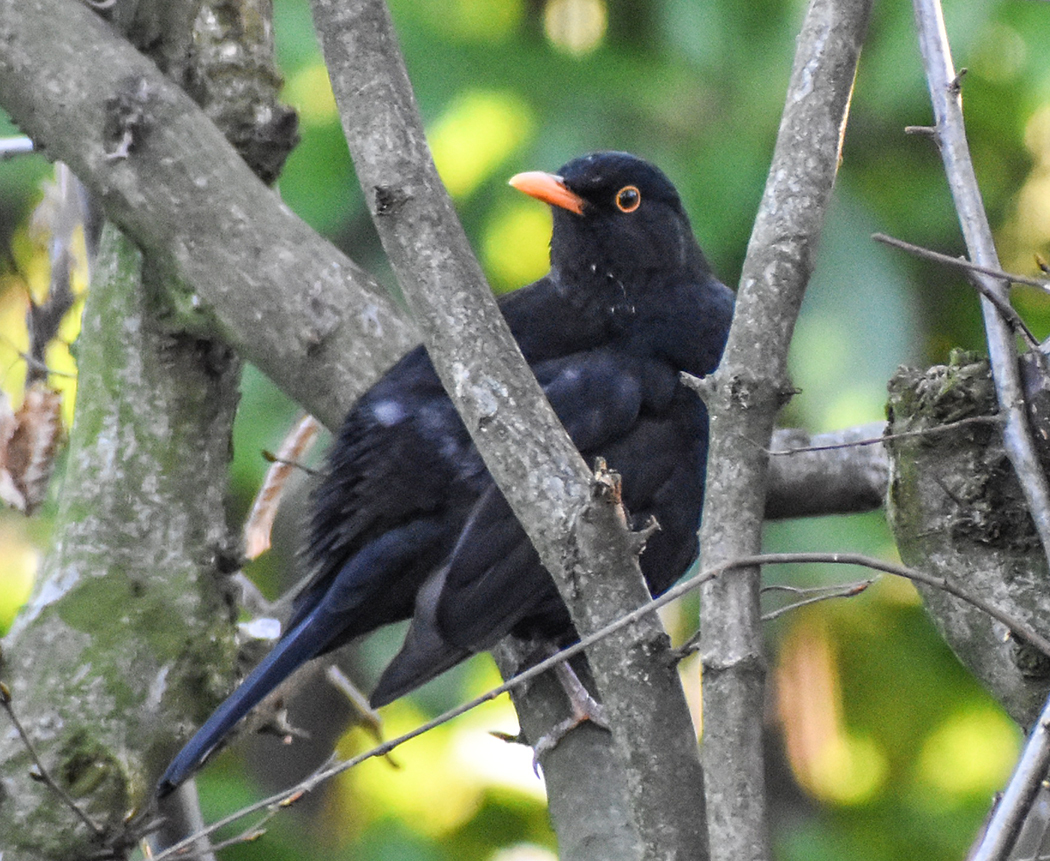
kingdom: Animalia
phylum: Chordata
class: Aves
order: Passeriformes
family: Turdidae
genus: Turdus
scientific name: Turdus merula
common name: Common blackbird
